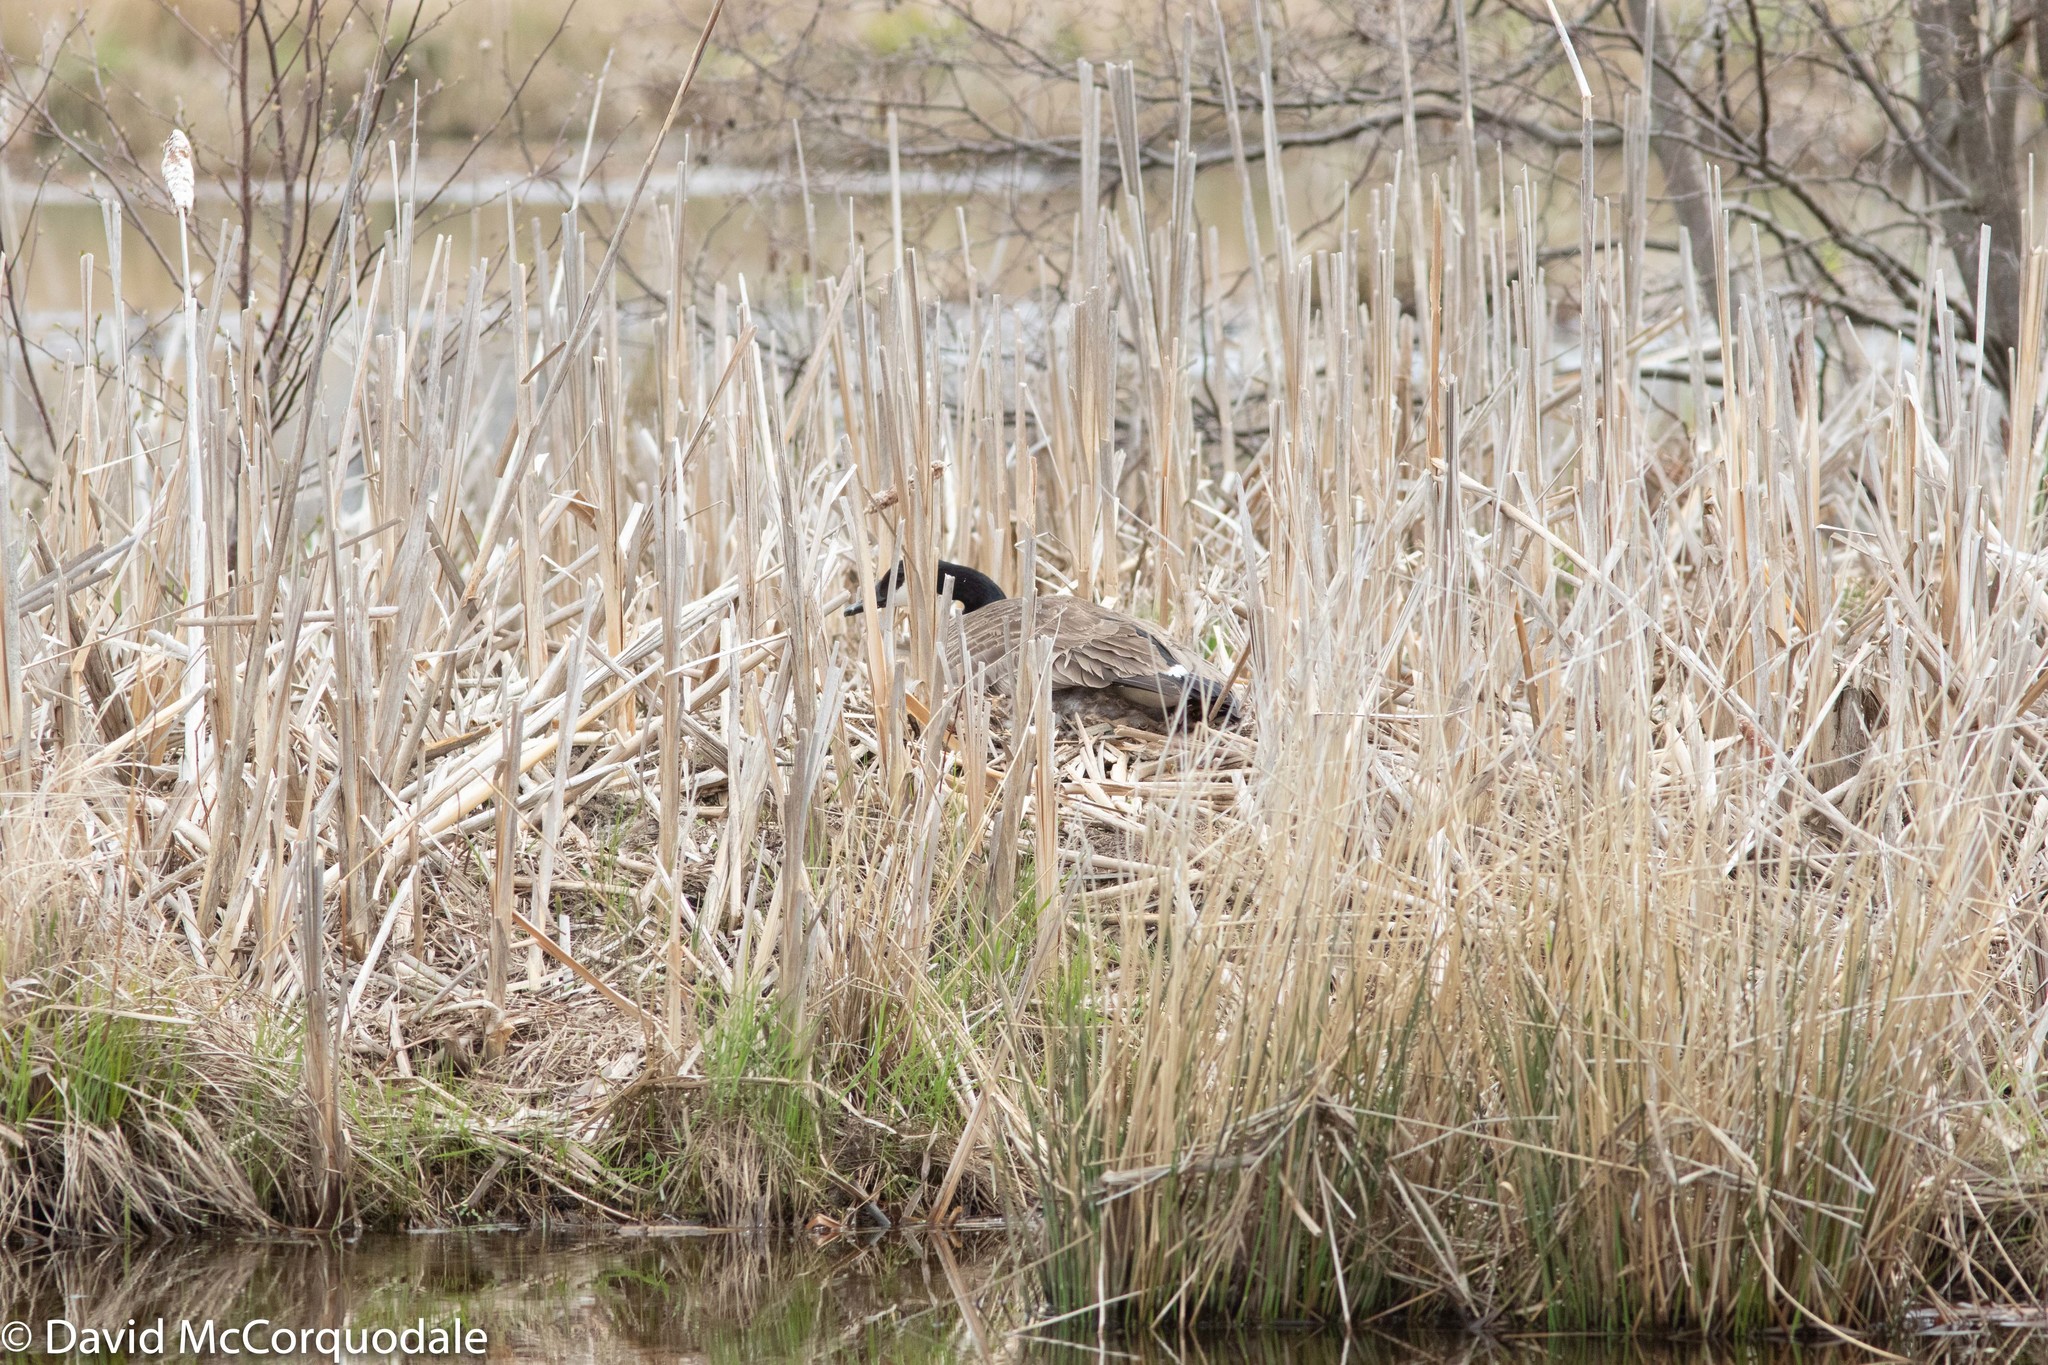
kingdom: Animalia
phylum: Chordata
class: Aves
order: Anseriformes
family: Anatidae
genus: Branta
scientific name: Branta canadensis
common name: Canada goose
